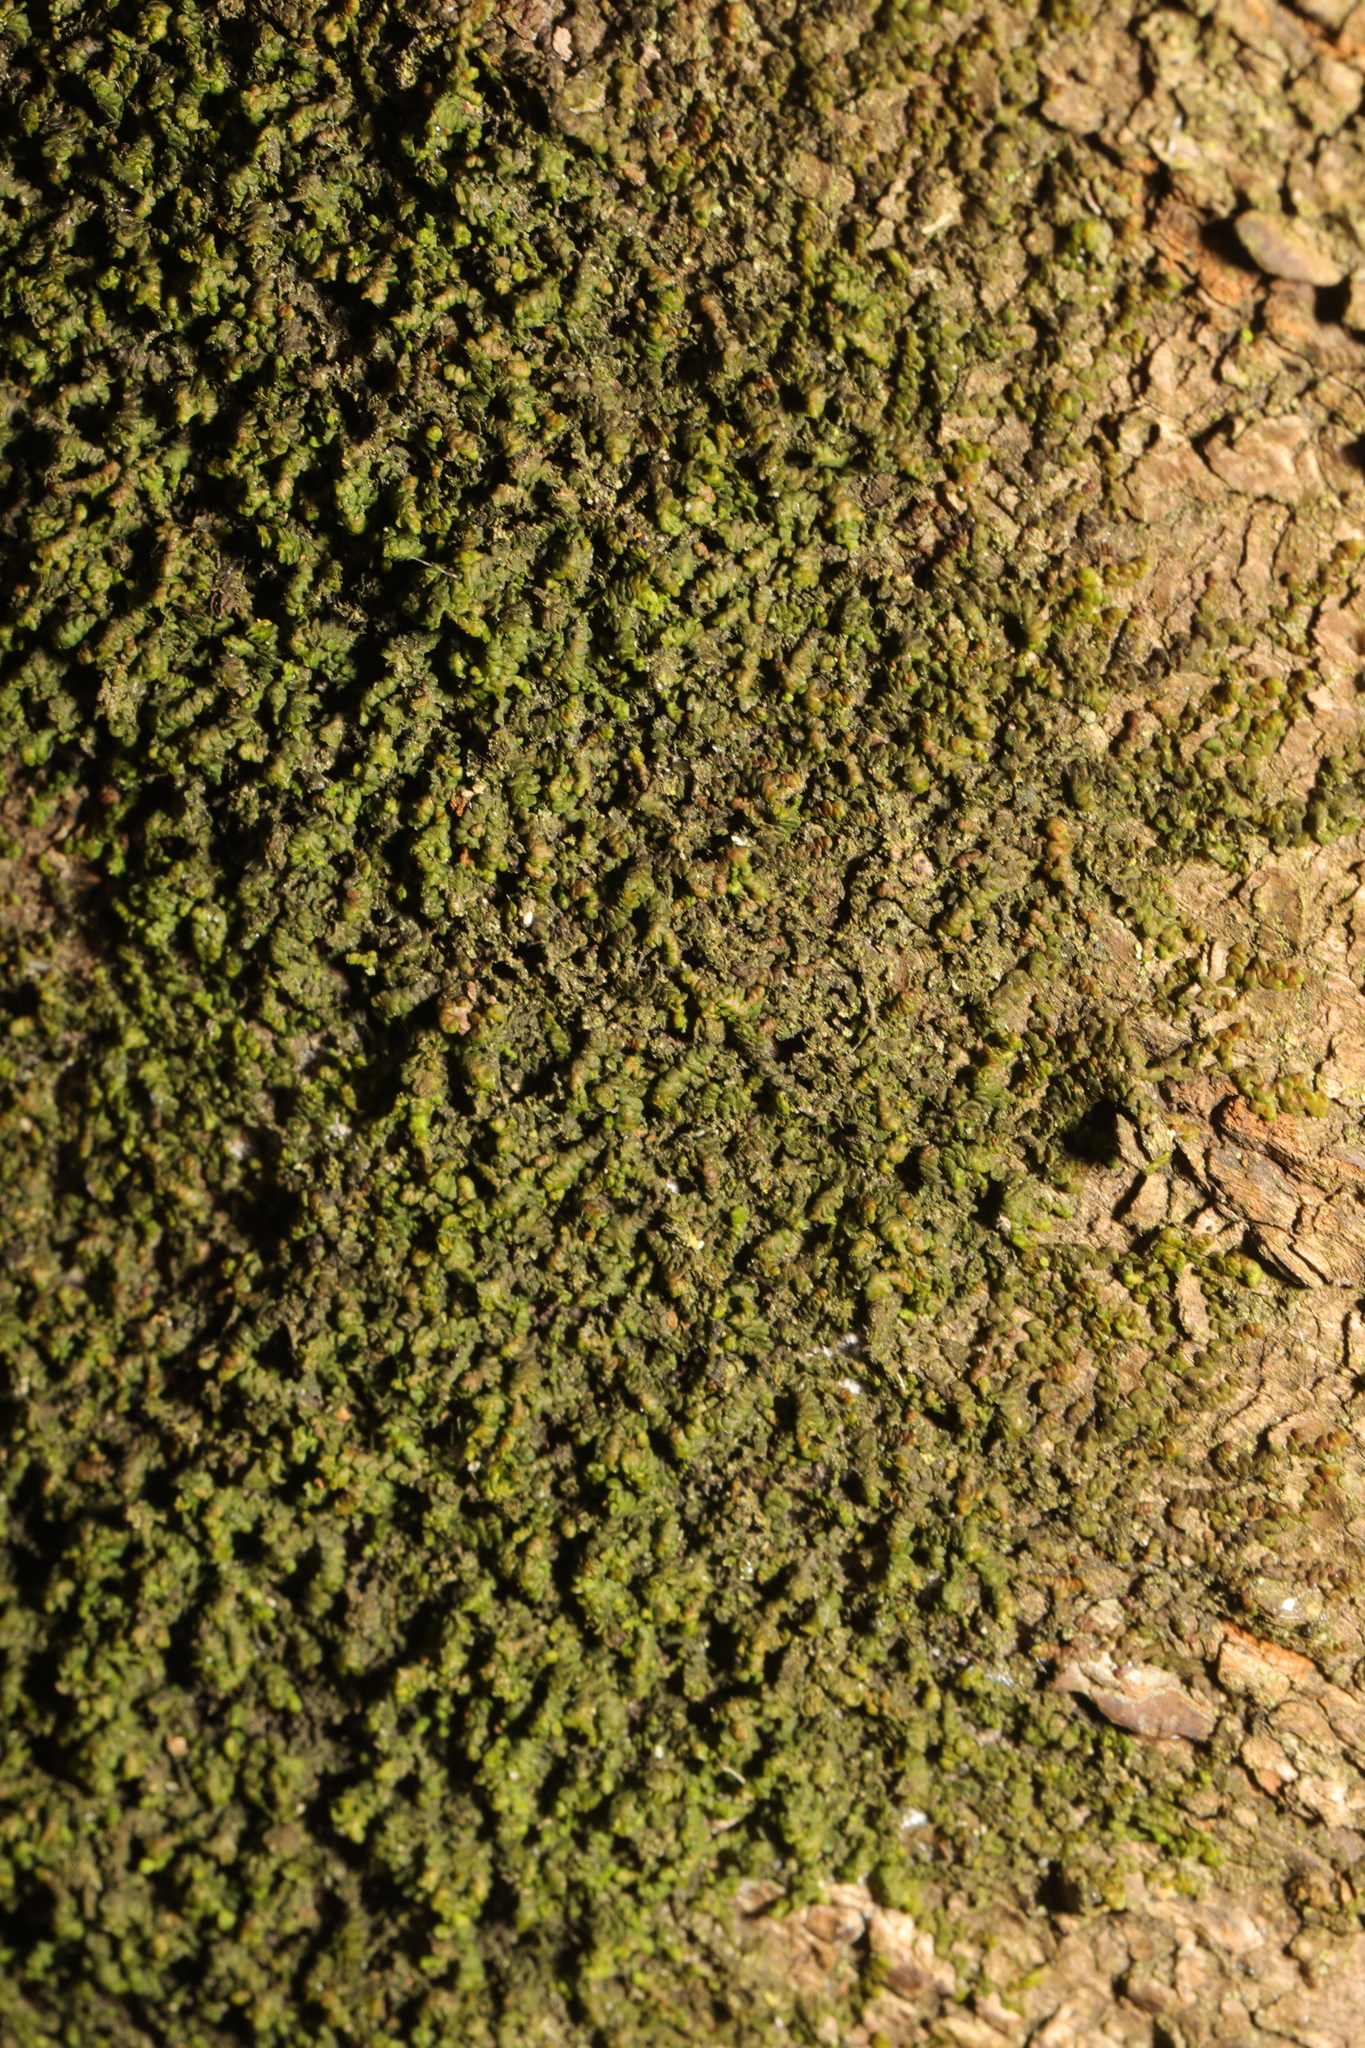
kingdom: Plantae
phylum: Marchantiophyta
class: Jungermanniopsida
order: Porellales
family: Frullaniaceae
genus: Frullania
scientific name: Frullania dilatata
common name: Dilated scalewort
